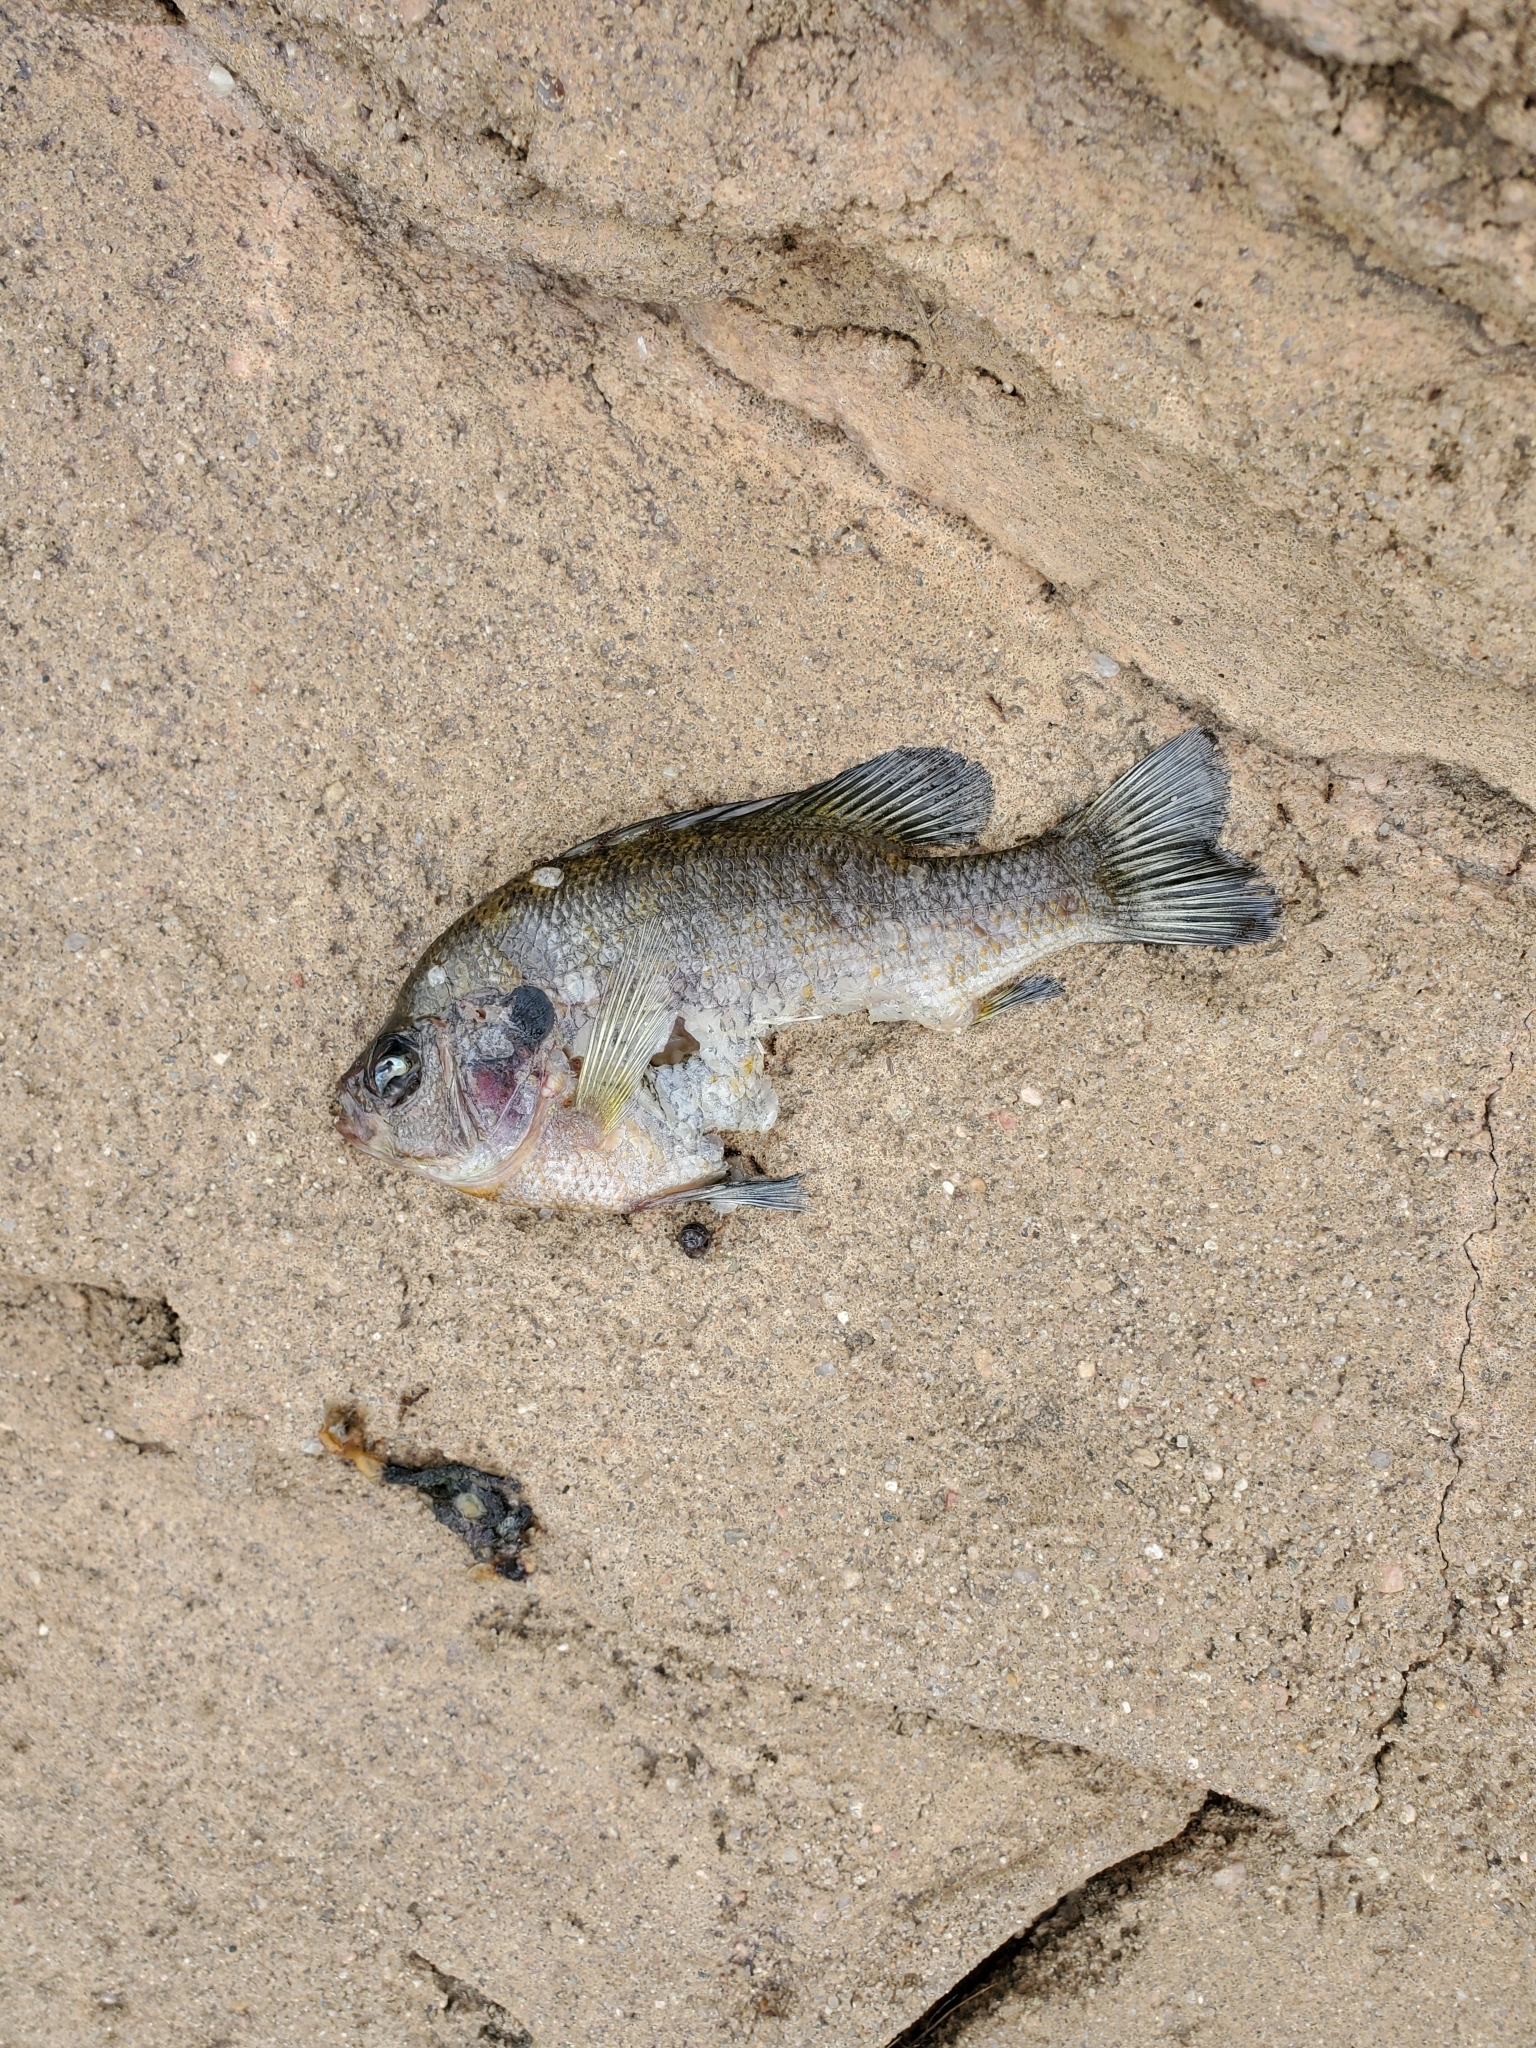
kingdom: Animalia
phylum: Chordata
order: Perciformes
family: Centrarchidae
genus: Lepomis
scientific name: Lepomis macrochirus
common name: Bluegill
